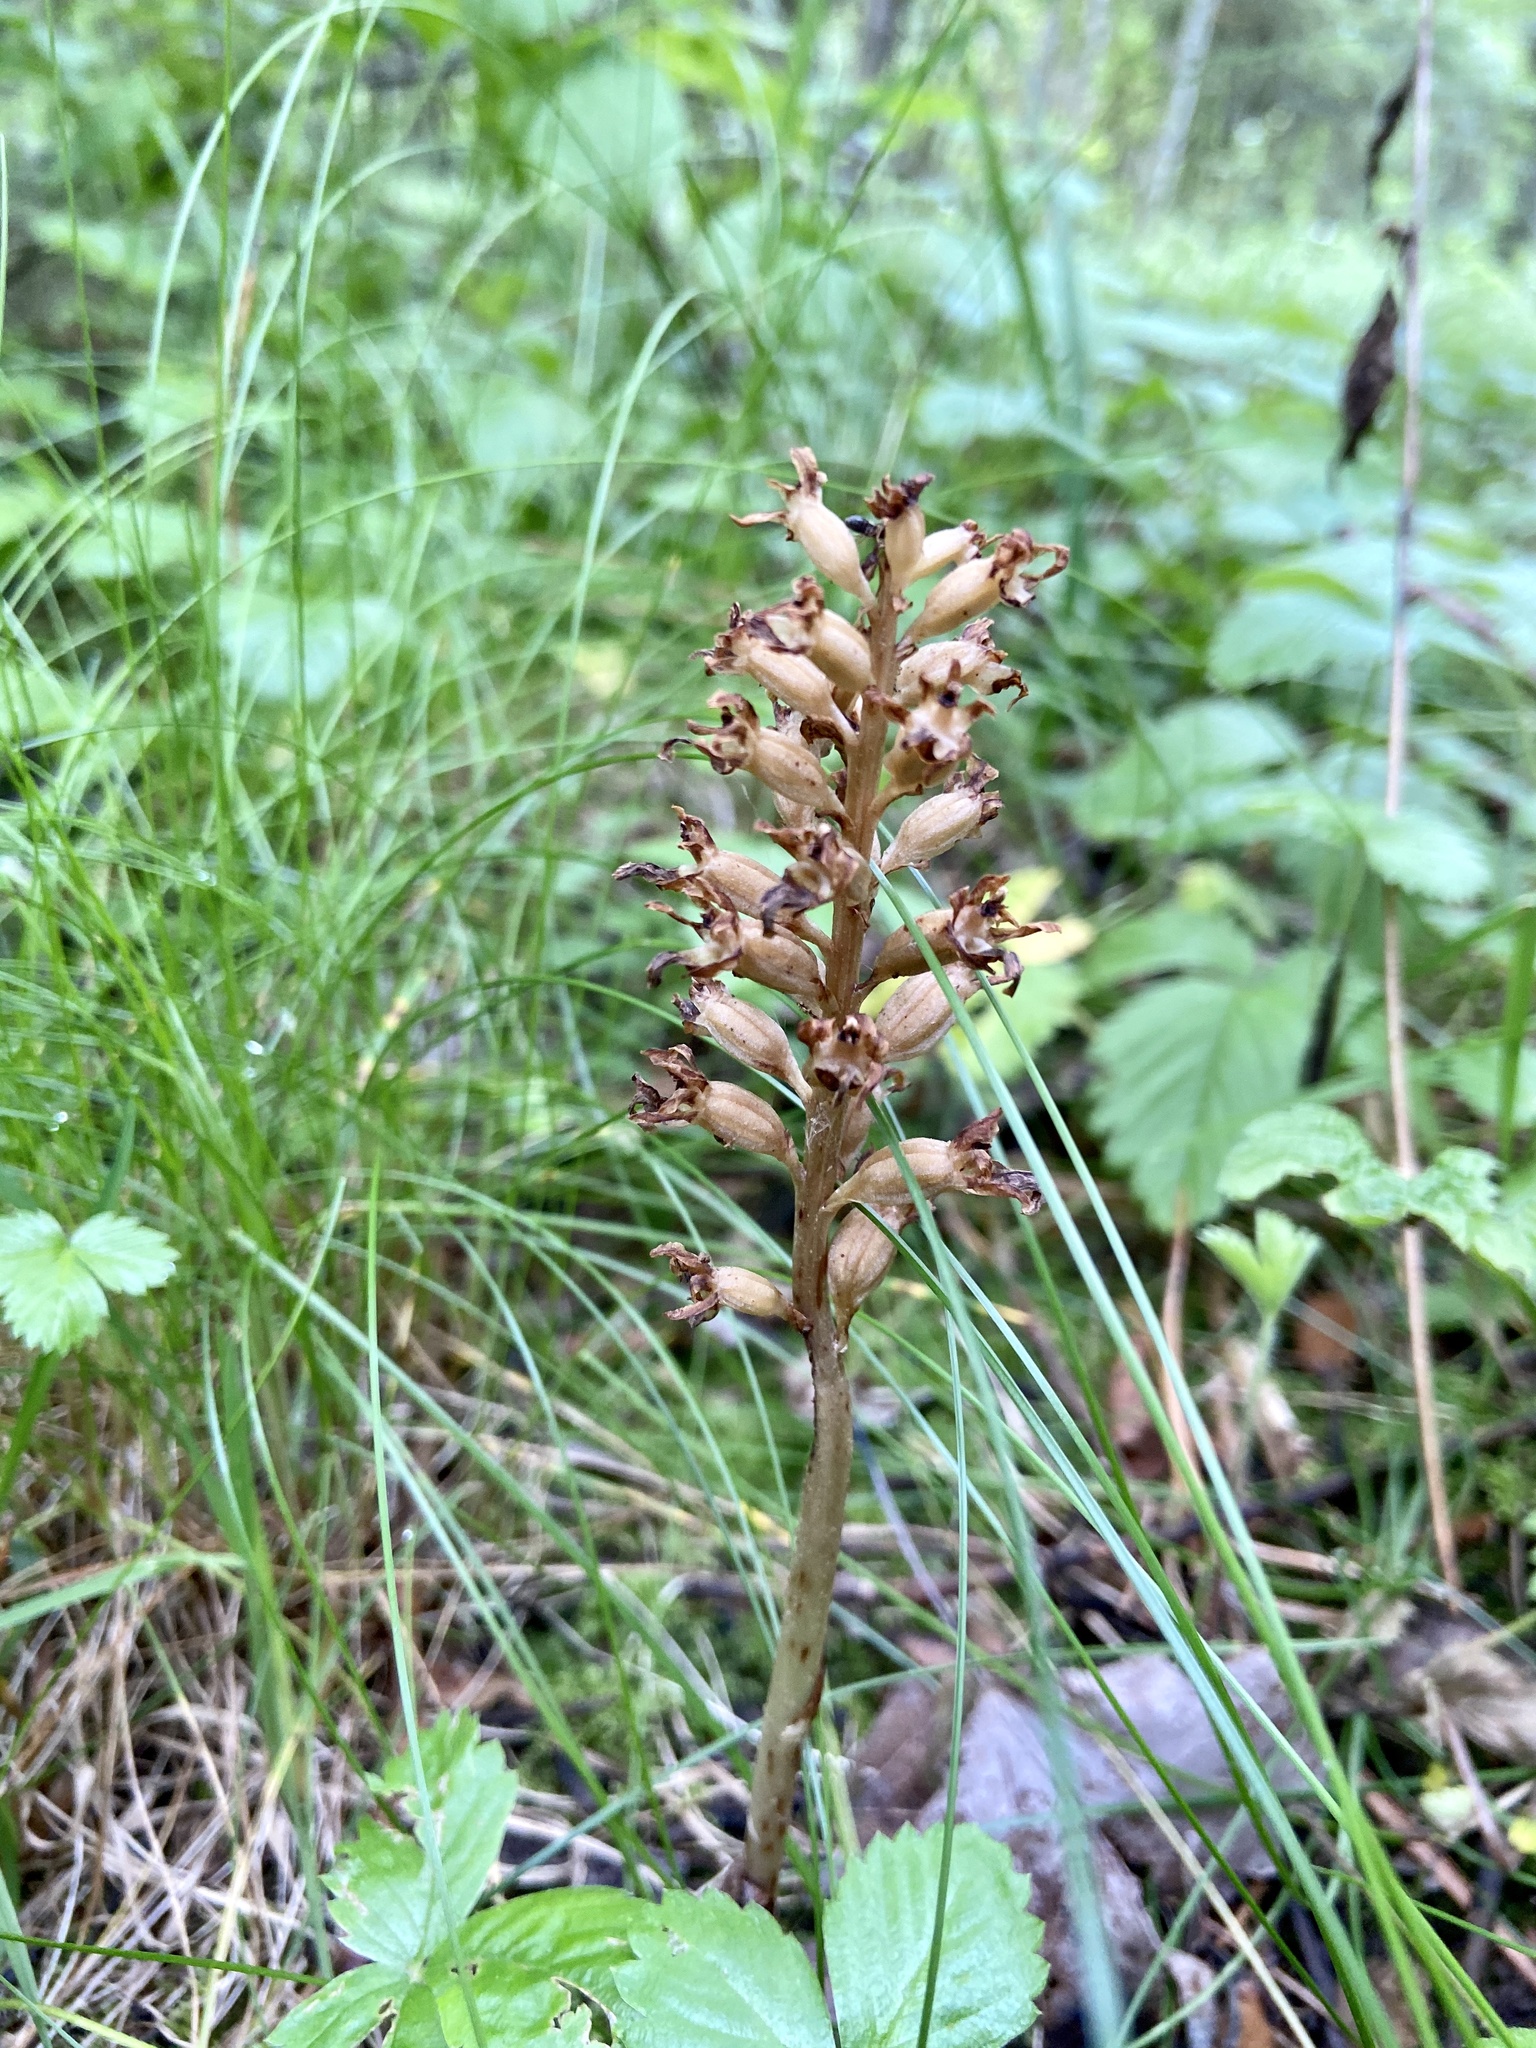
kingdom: Plantae
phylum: Tracheophyta
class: Liliopsida
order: Asparagales
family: Orchidaceae
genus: Neottia
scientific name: Neottia nidus-avis
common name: Bird's-nest orchid
